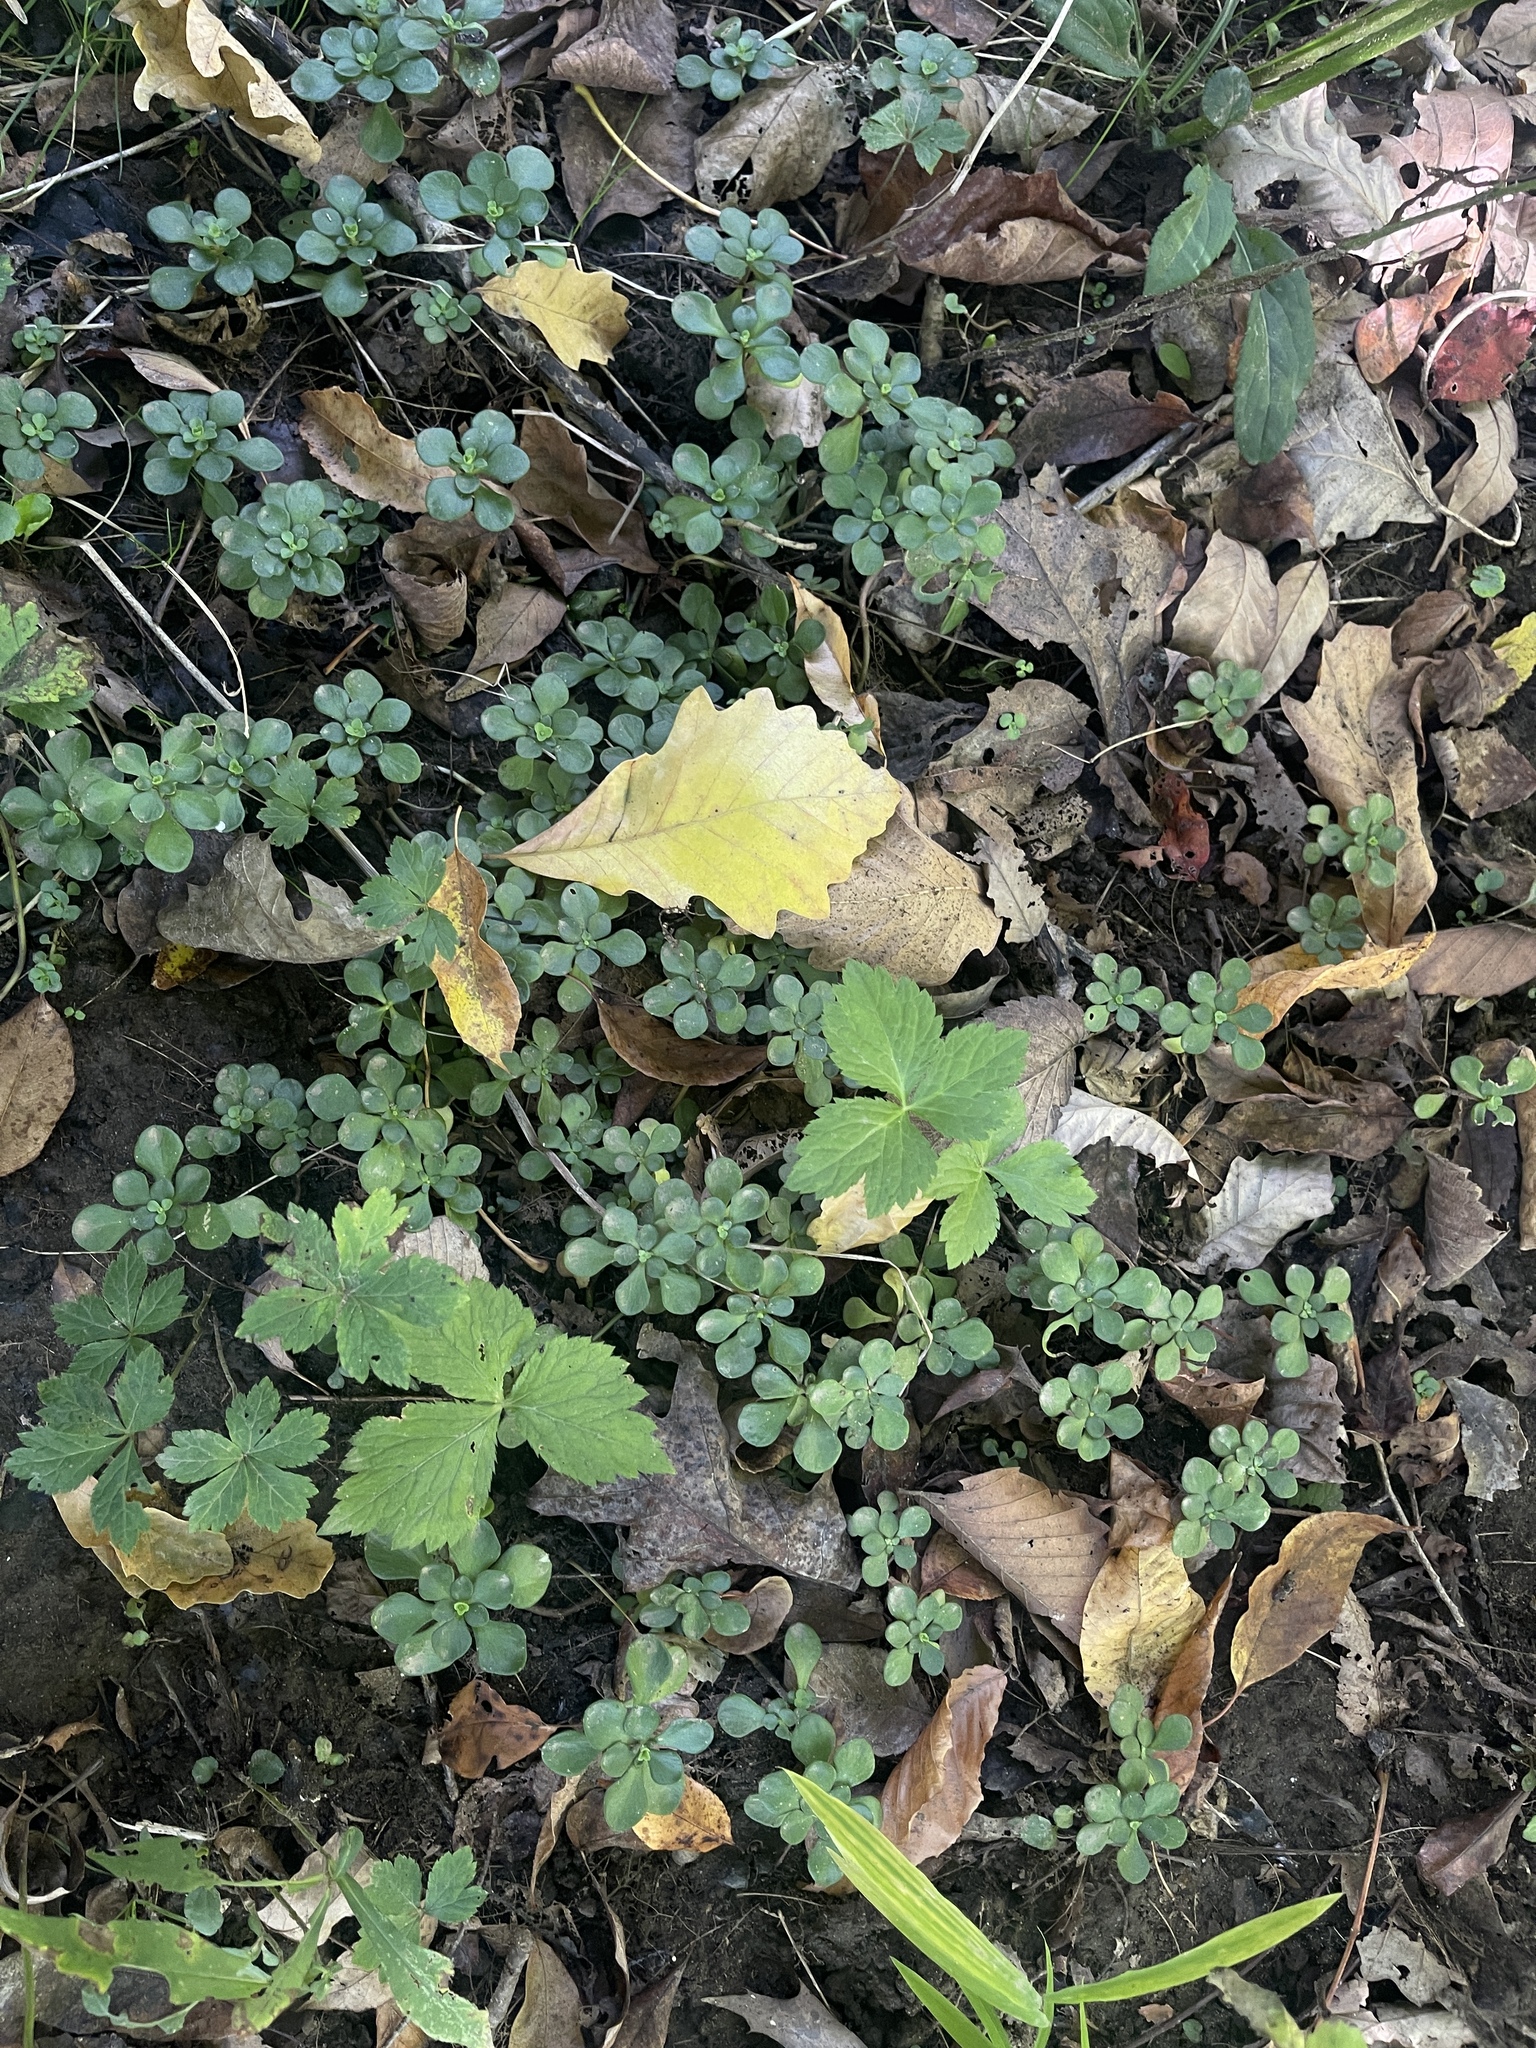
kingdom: Plantae
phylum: Tracheophyta
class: Magnoliopsida
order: Saxifragales
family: Crassulaceae
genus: Sedum
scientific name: Sedum ternatum
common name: Wild stonecrop
